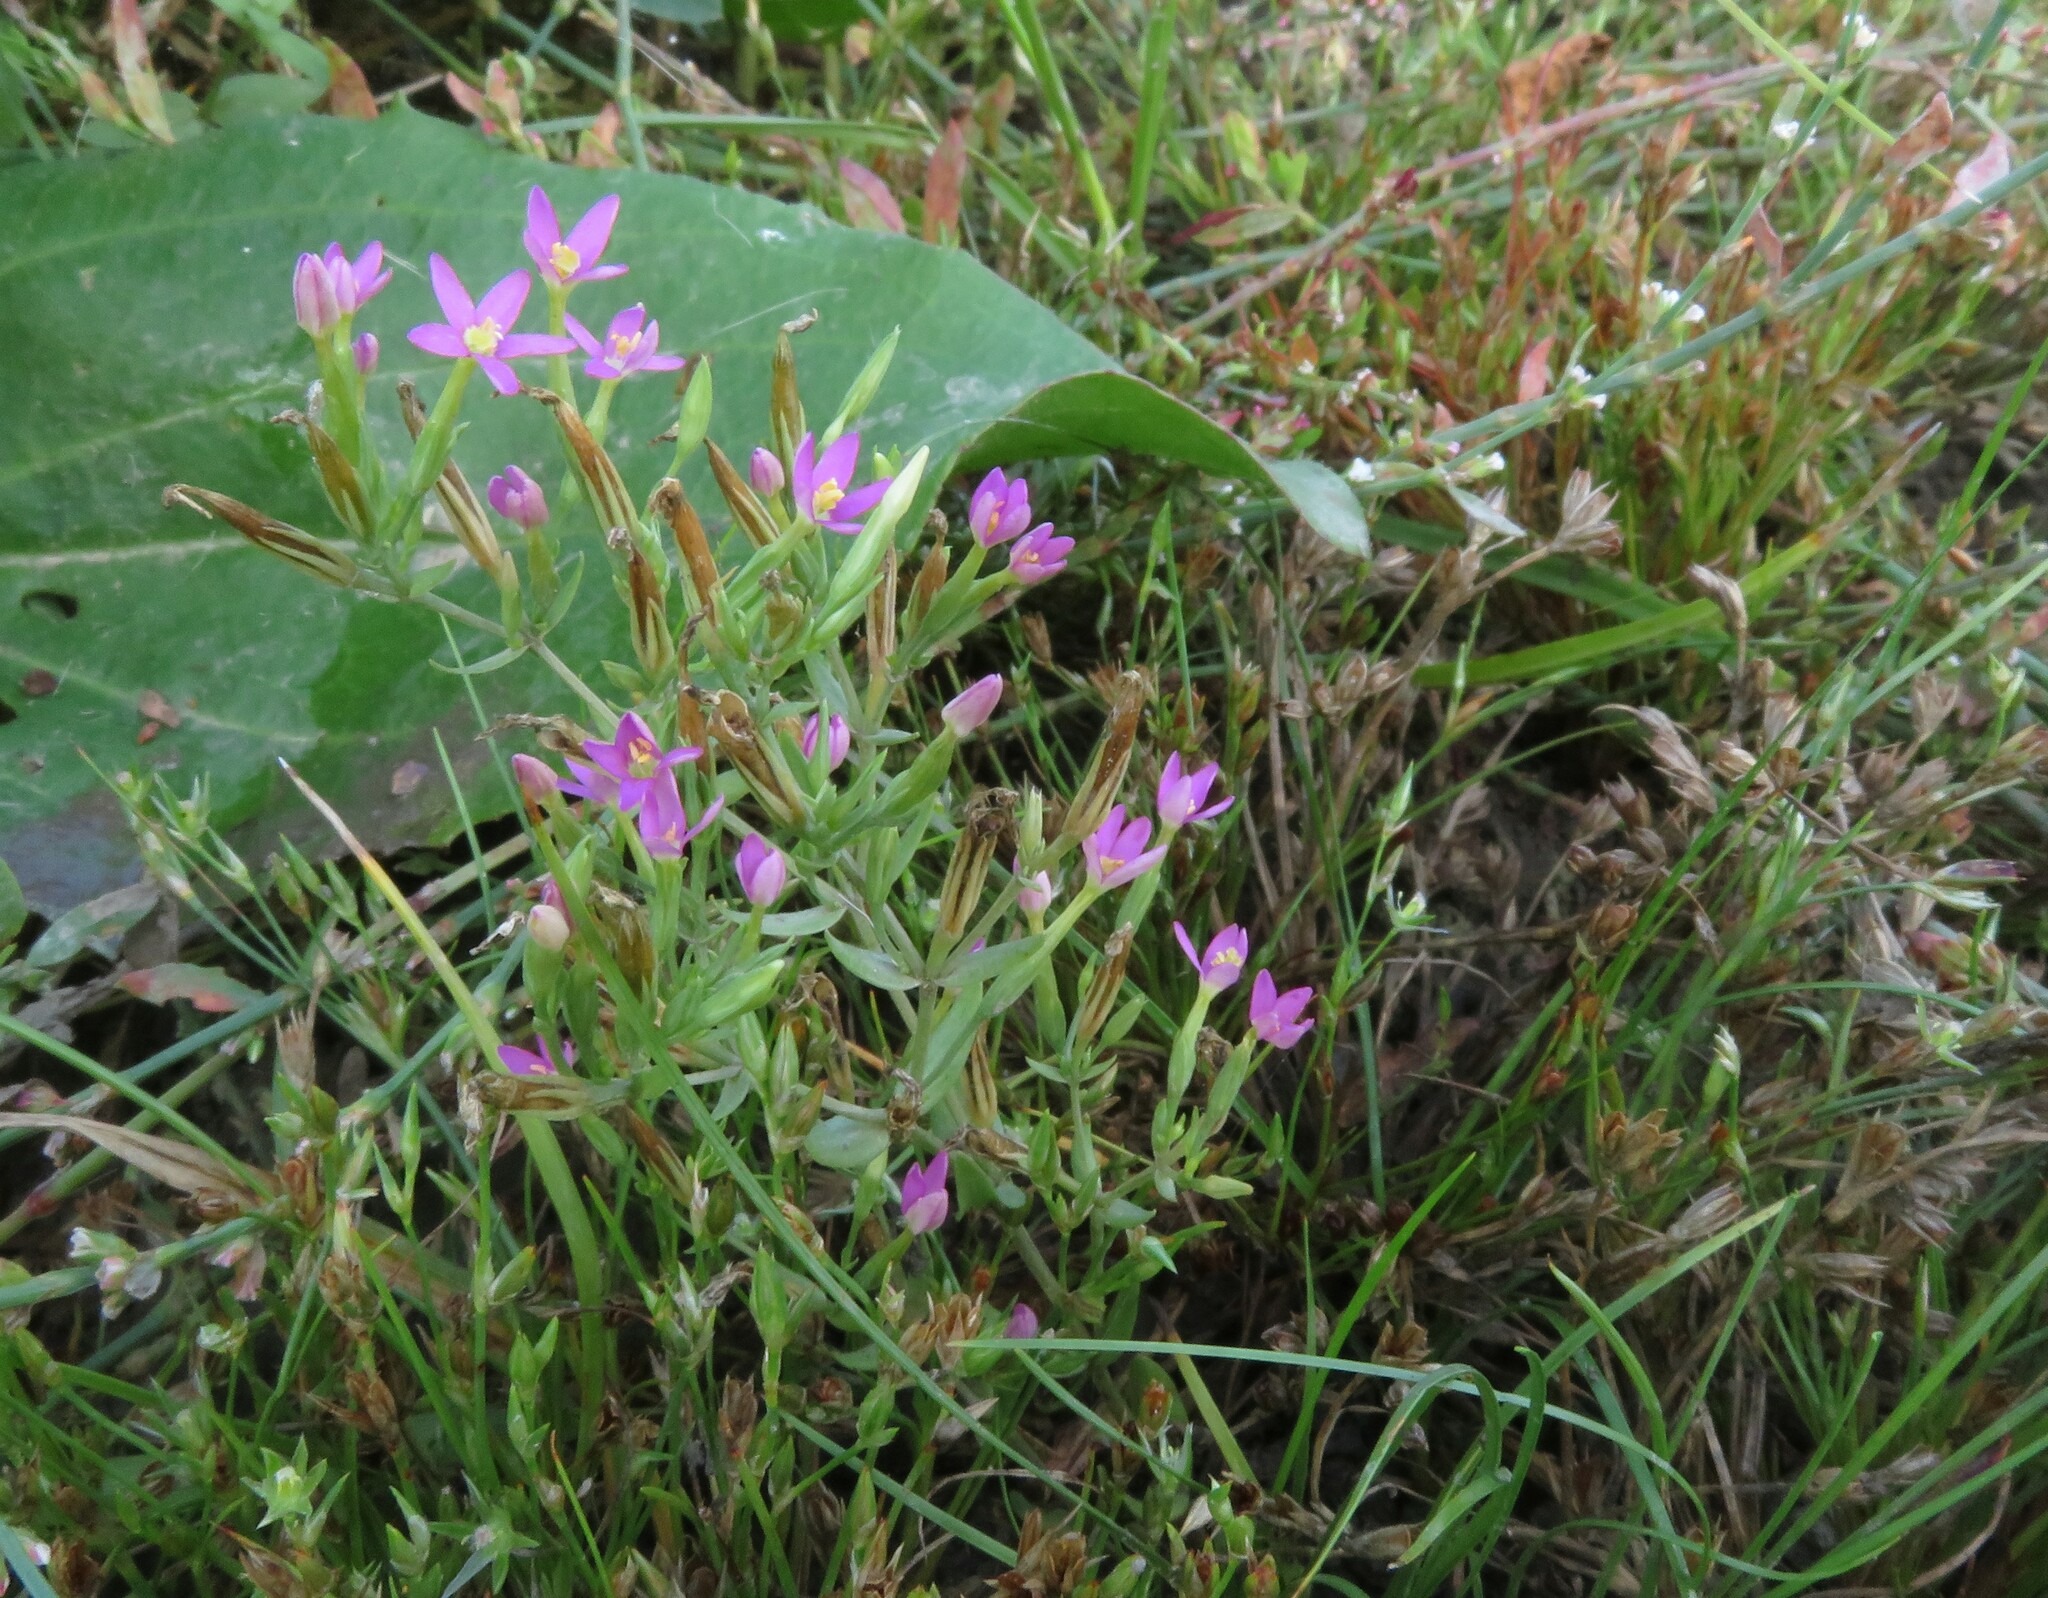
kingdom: Plantae
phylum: Tracheophyta
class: Magnoliopsida
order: Gentianales
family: Gentianaceae
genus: Centaurium
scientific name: Centaurium pulchellum
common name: Lesser centaury
